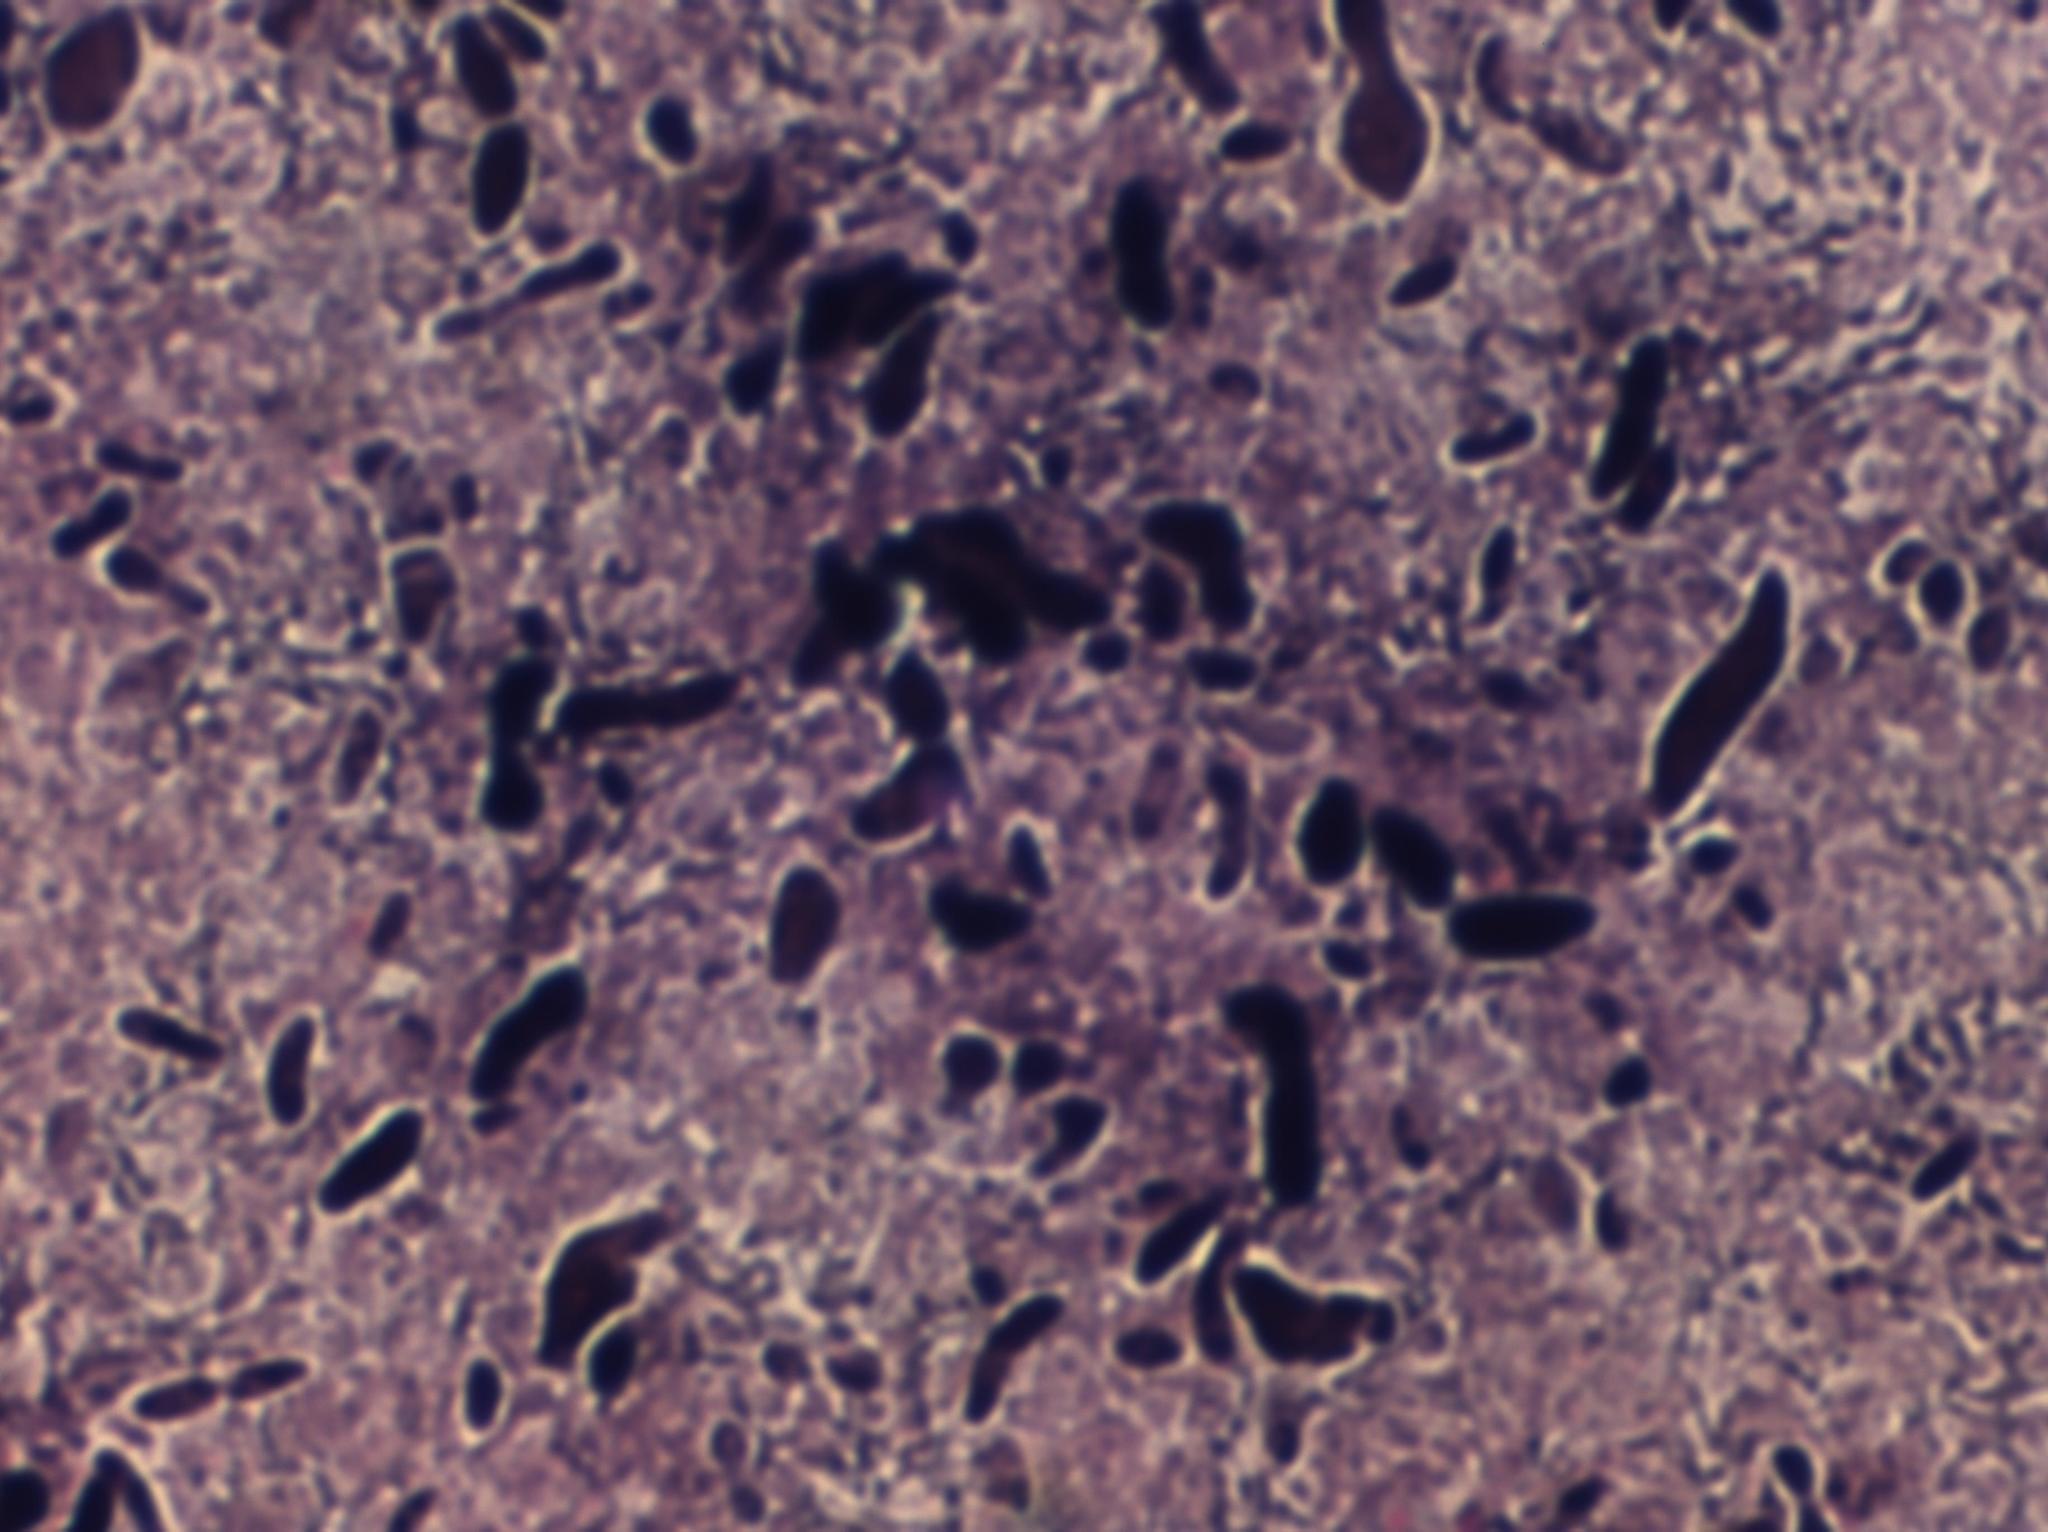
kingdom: Bacteria
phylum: Proteobacteria
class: Gammaproteobacteria
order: Burkholderiales
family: Chromobacteriaceae
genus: Vogesella
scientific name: Vogesella
